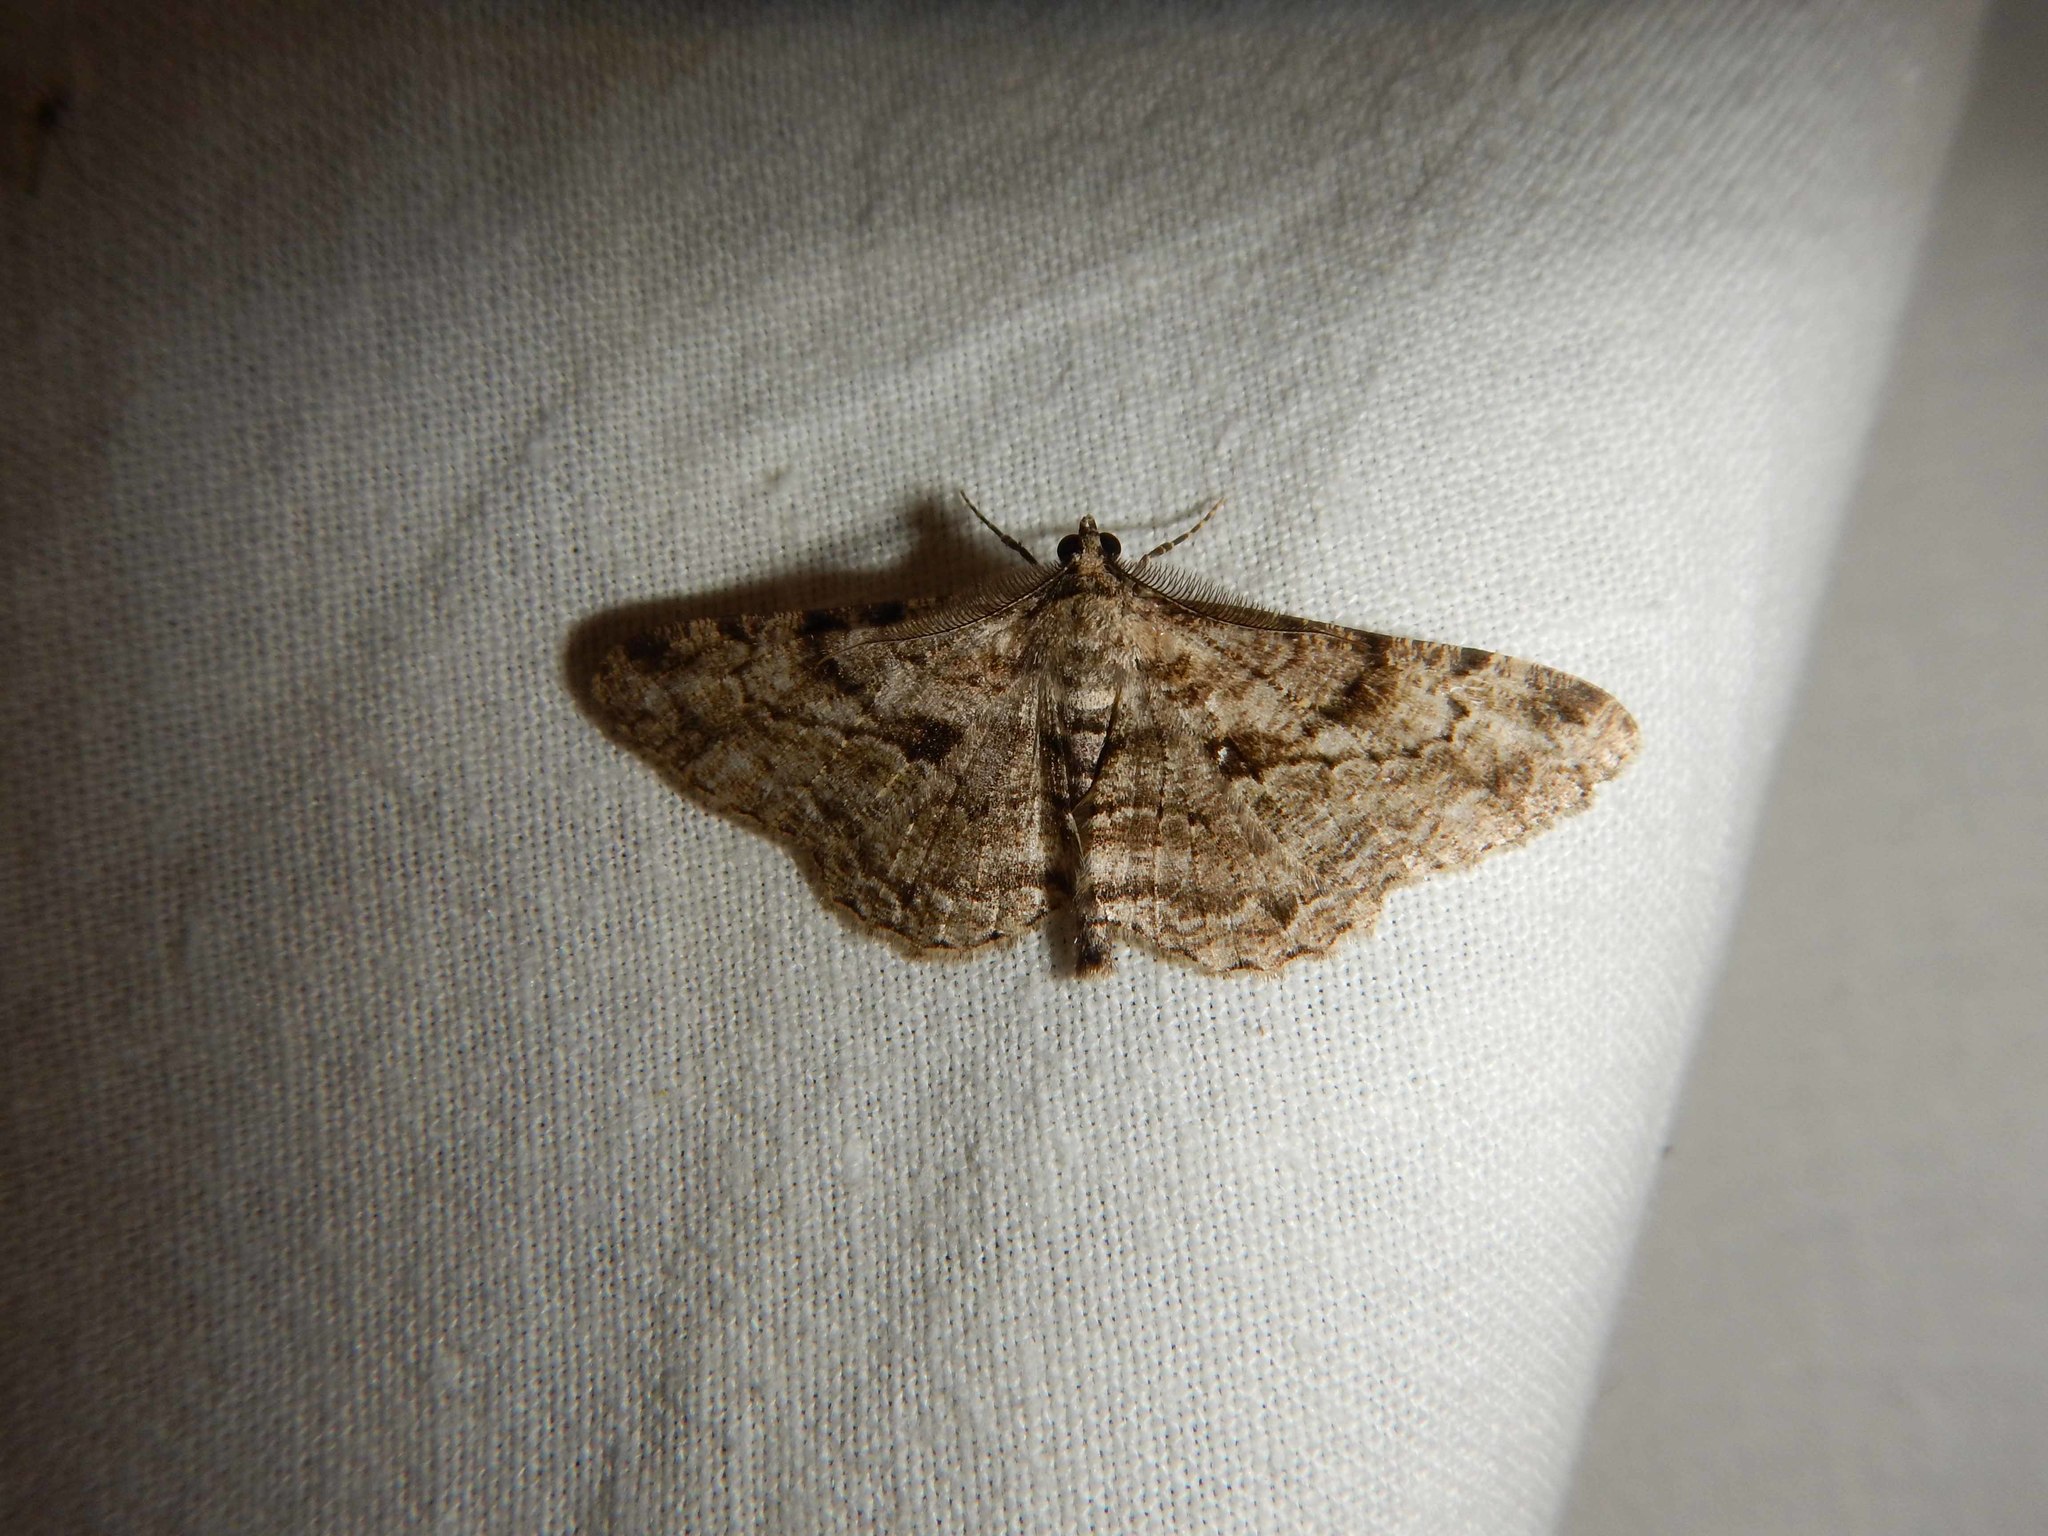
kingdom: Animalia
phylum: Arthropoda
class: Insecta
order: Lepidoptera
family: Geometridae
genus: Peribatodes
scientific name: Peribatodes rhomboidaria
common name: Willow beauty
